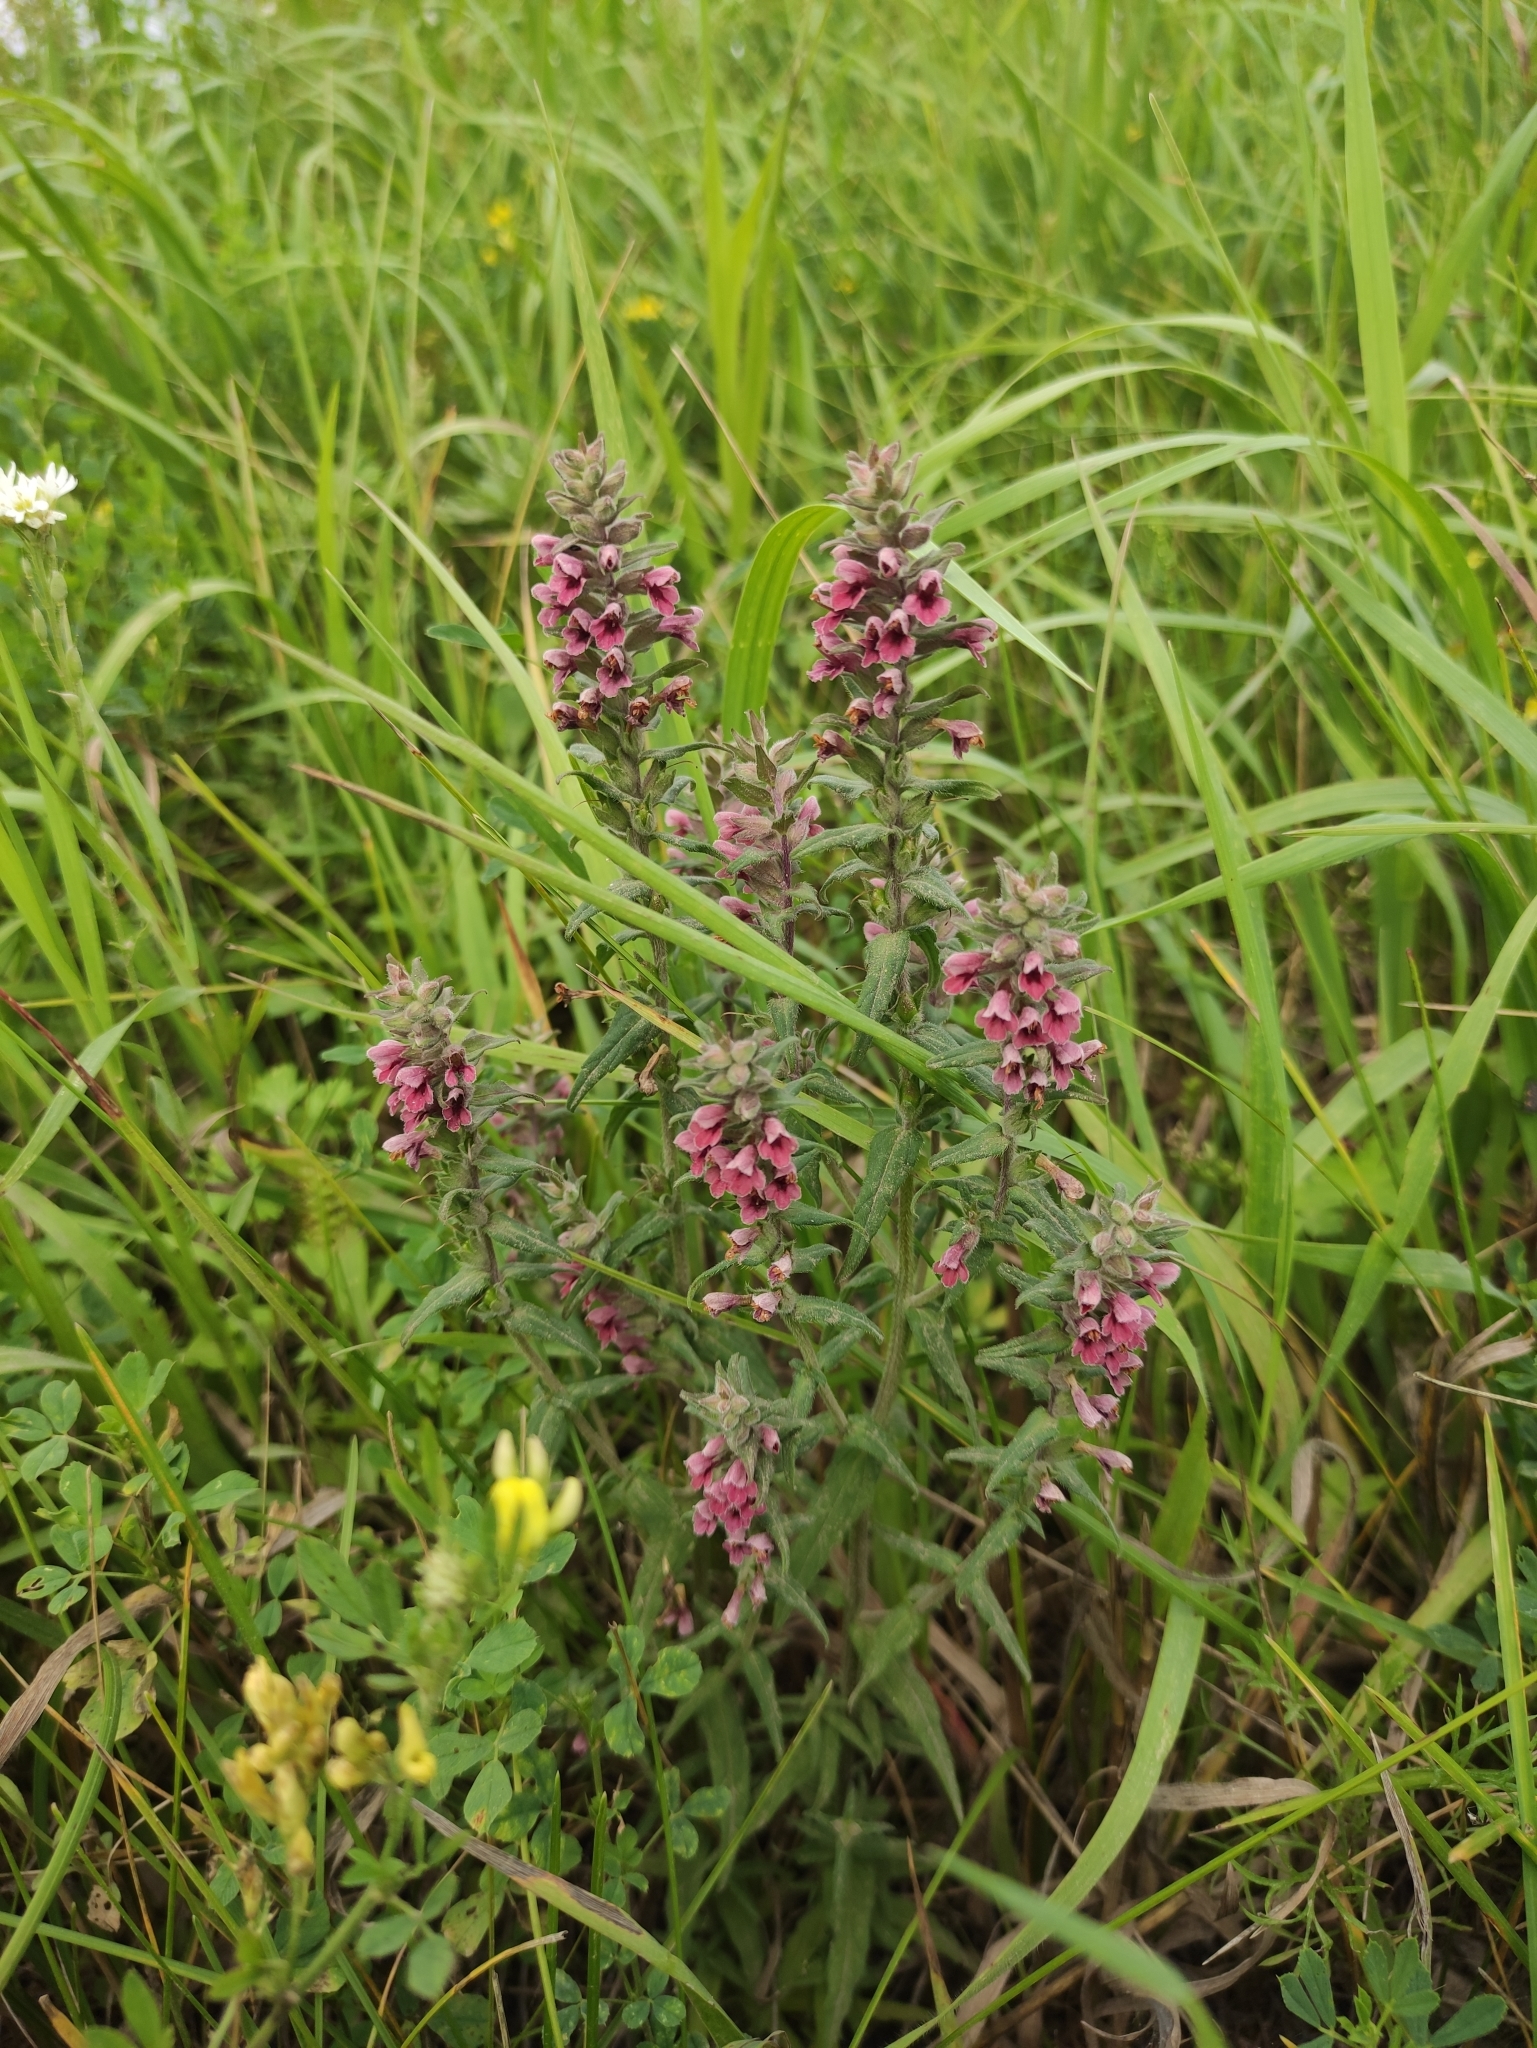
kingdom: Plantae
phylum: Tracheophyta
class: Magnoliopsida
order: Lamiales
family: Orobanchaceae
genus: Odontites
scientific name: Odontites vulgaris
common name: Broomrape
